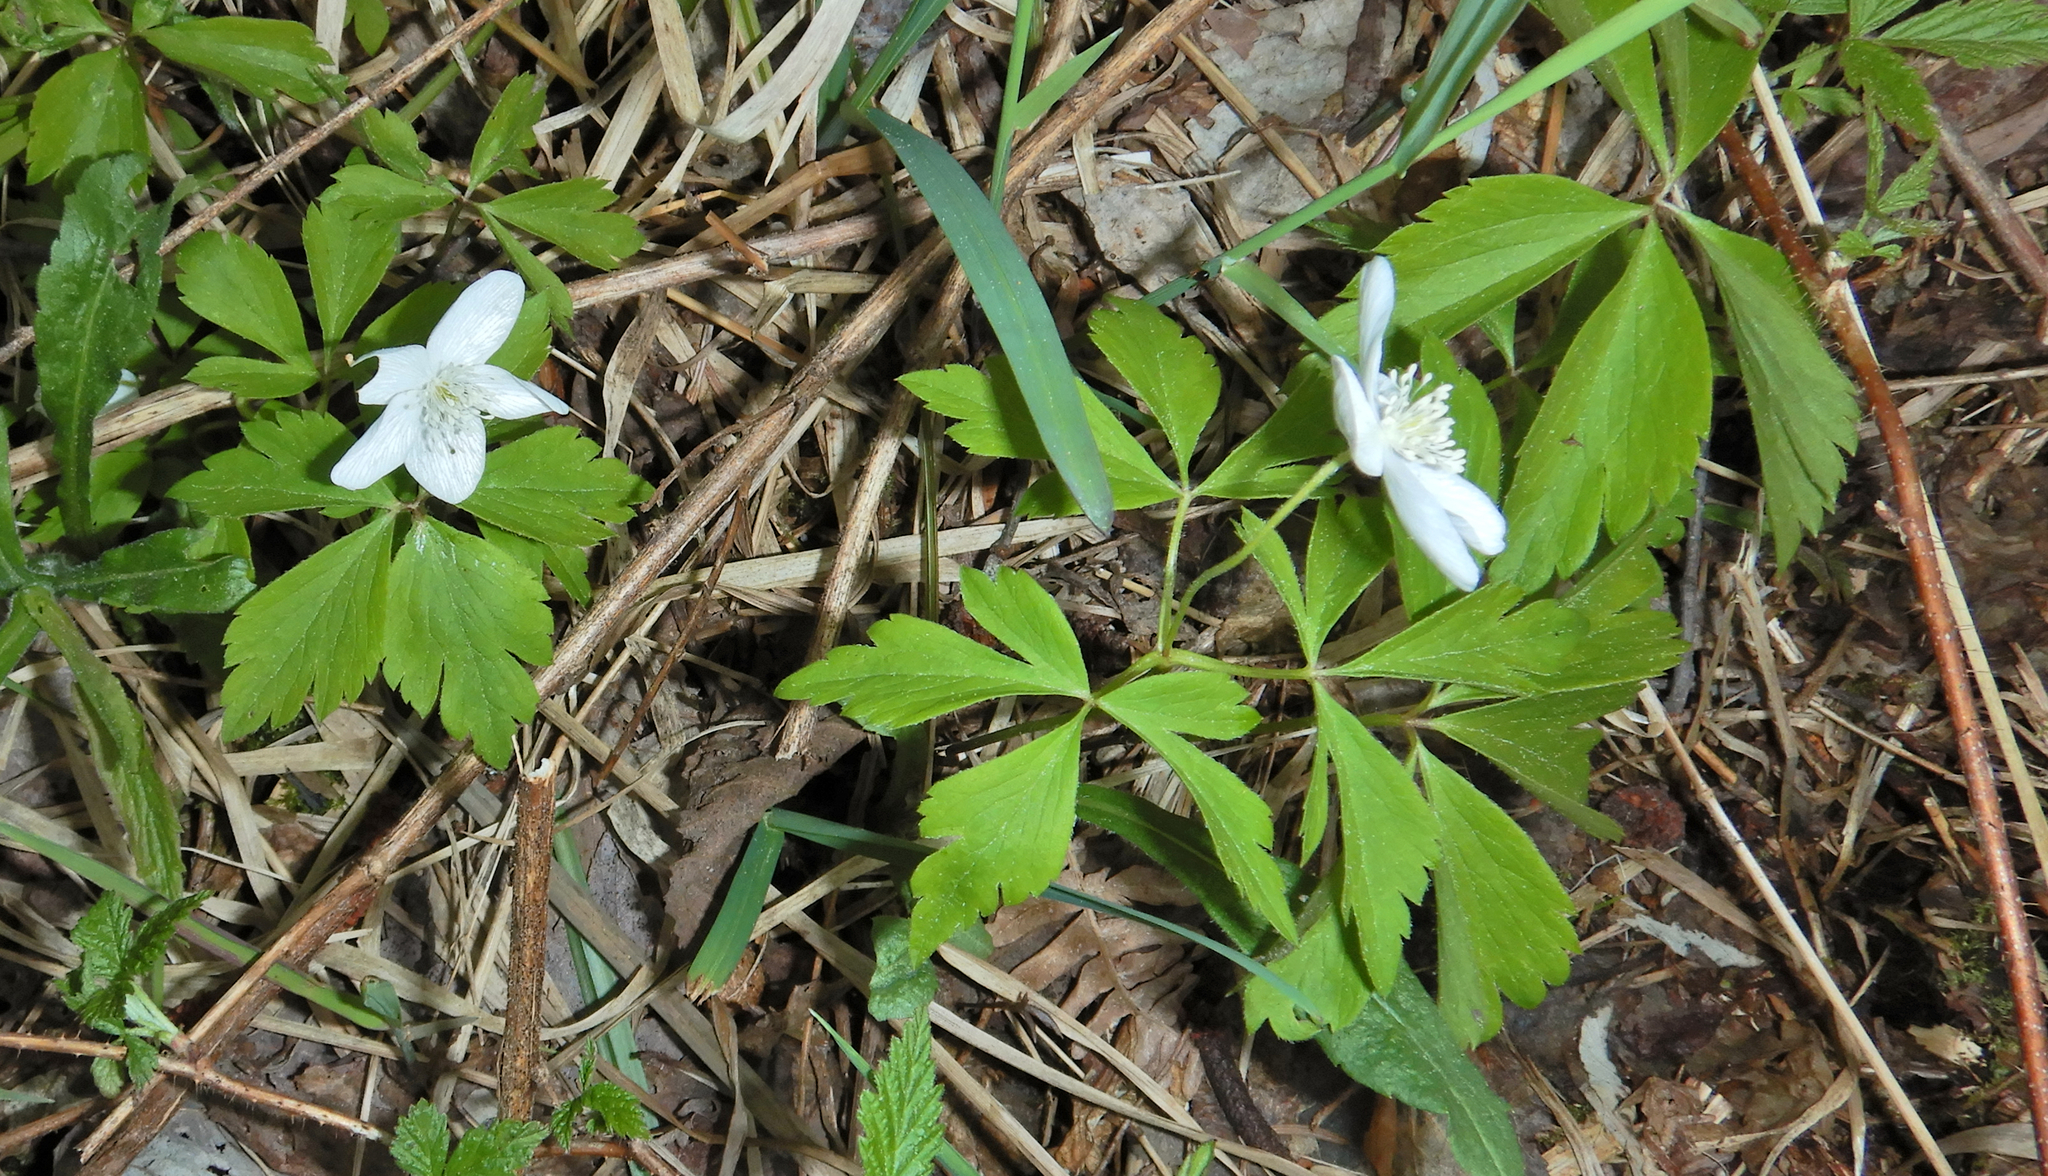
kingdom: Plantae
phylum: Tracheophyta
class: Magnoliopsida
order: Ranunculales
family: Ranunculaceae
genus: Anemone
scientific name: Anemone quinquefolia
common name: Wood anemone
